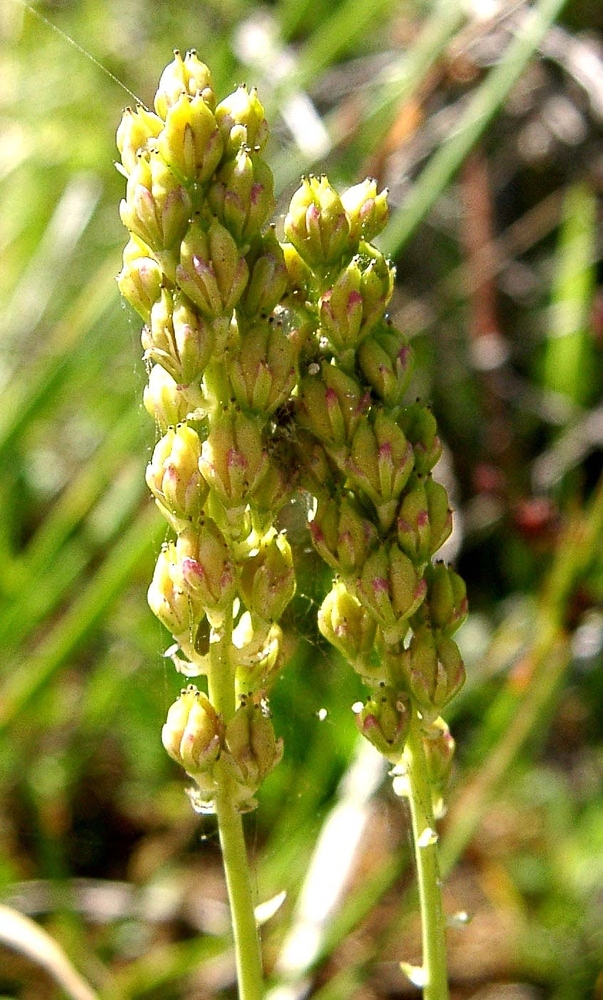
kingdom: Plantae
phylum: Tracheophyta
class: Liliopsida
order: Alismatales
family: Tofieldiaceae
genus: Tofieldia
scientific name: Tofieldia calyculata
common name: German-asphodel
